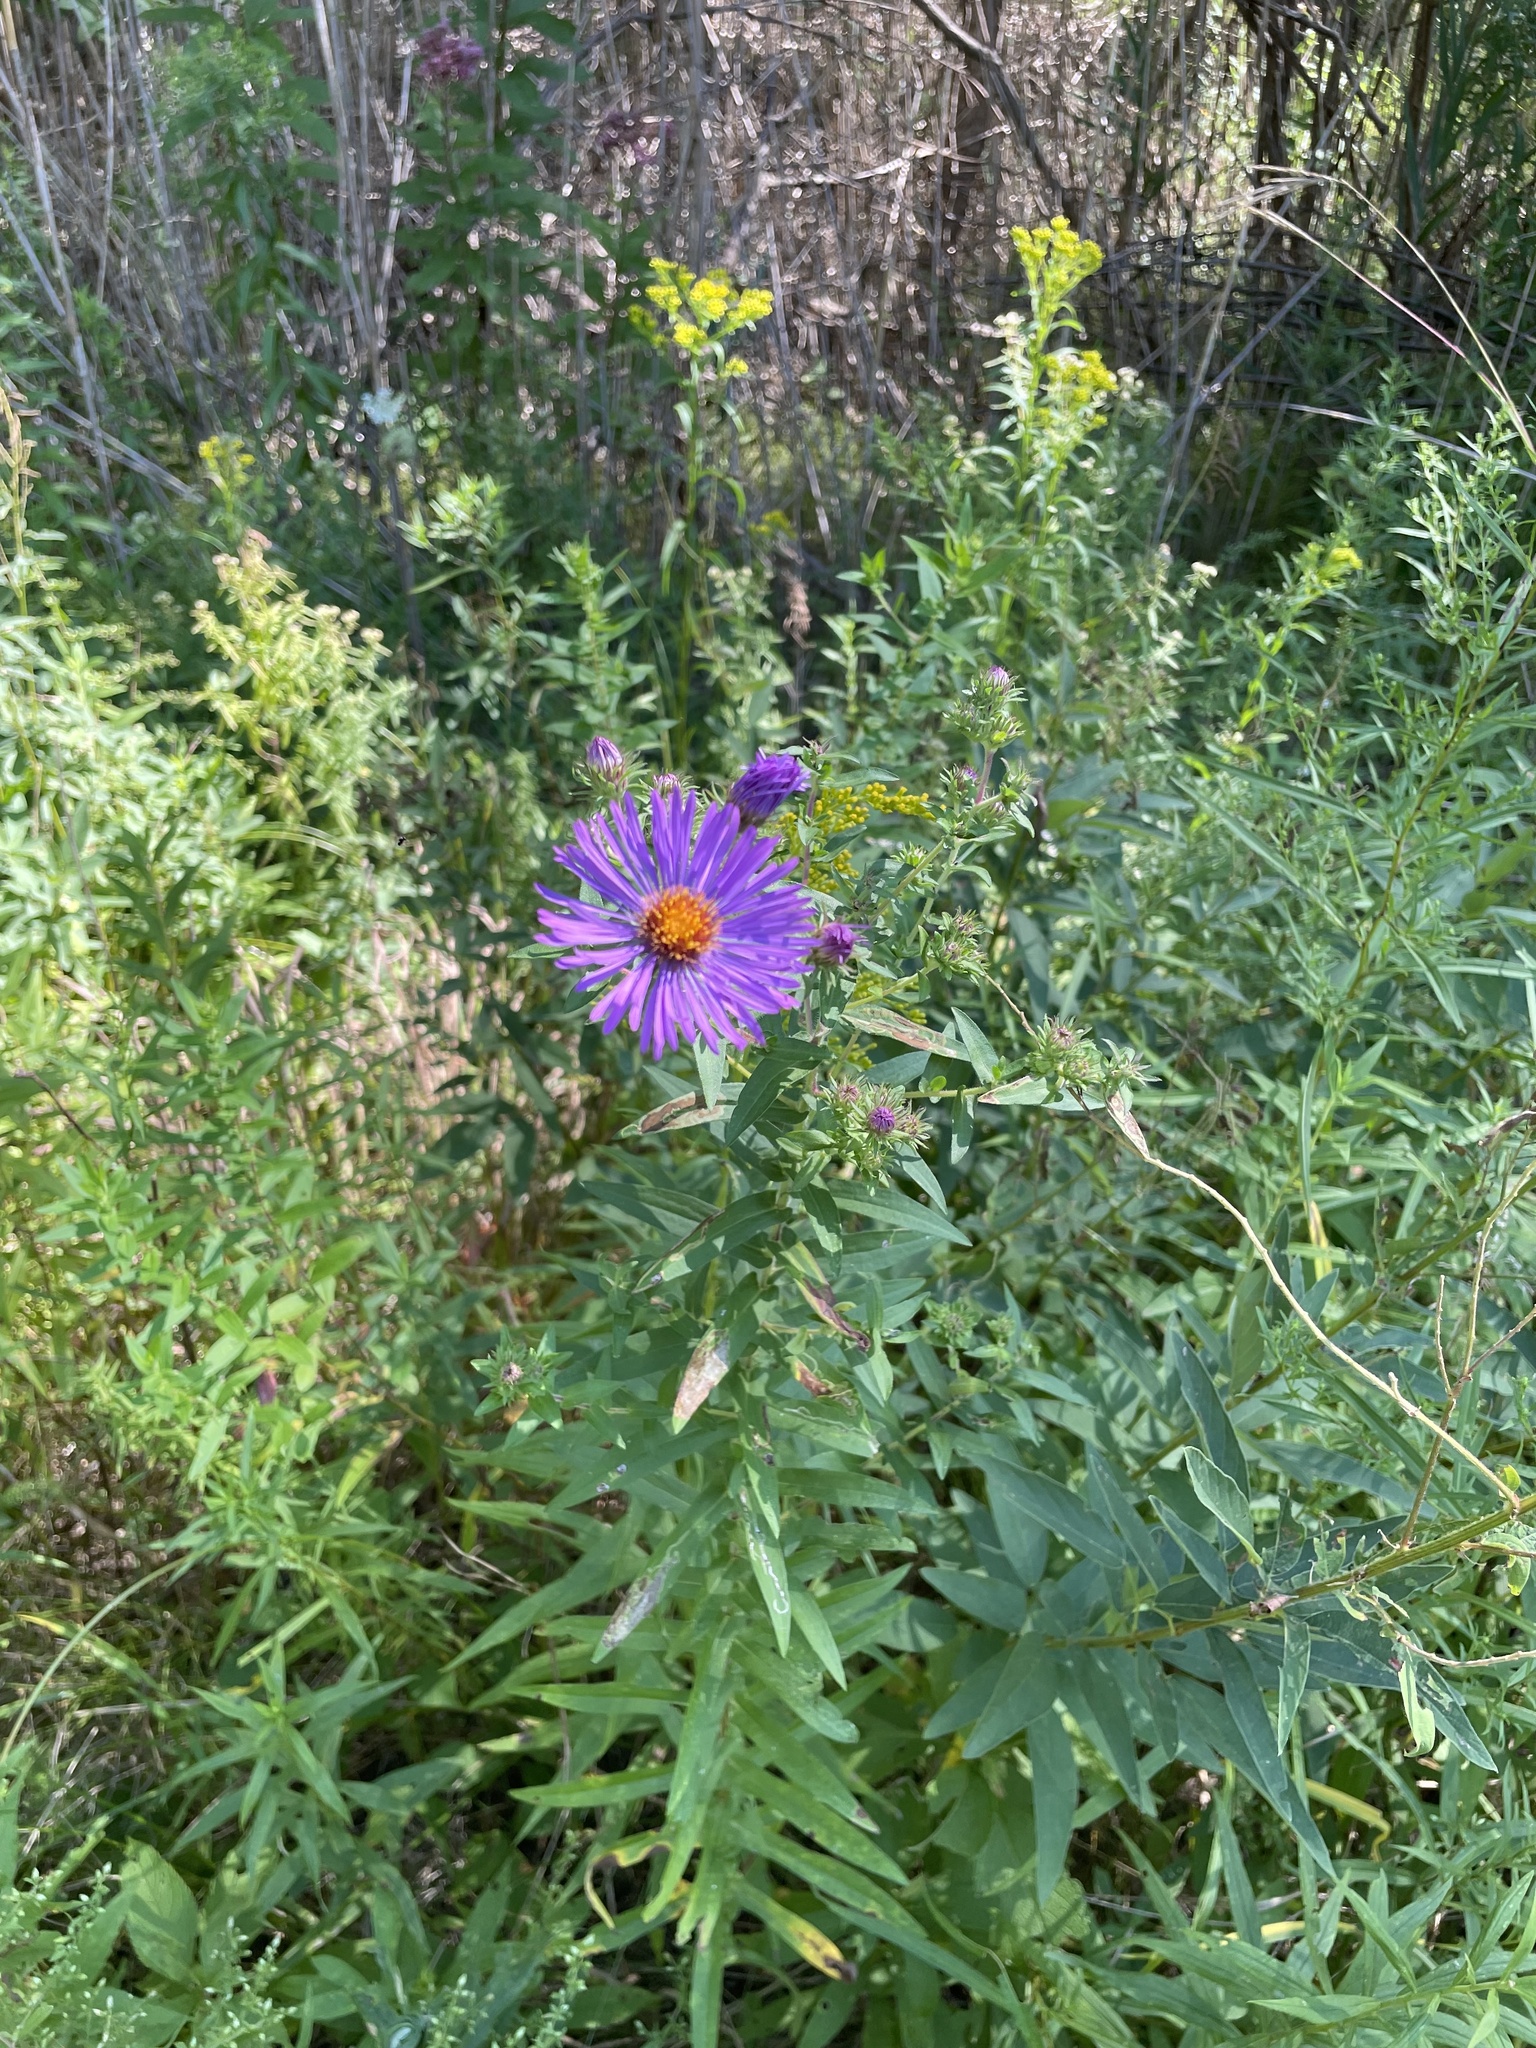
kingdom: Plantae
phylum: Tracheophyta
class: Magnoliopsida
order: Asterales
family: Asteraceae
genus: Symphyotrichum
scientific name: Symphyotrichum novae-angliae
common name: Michaelmas daisy
